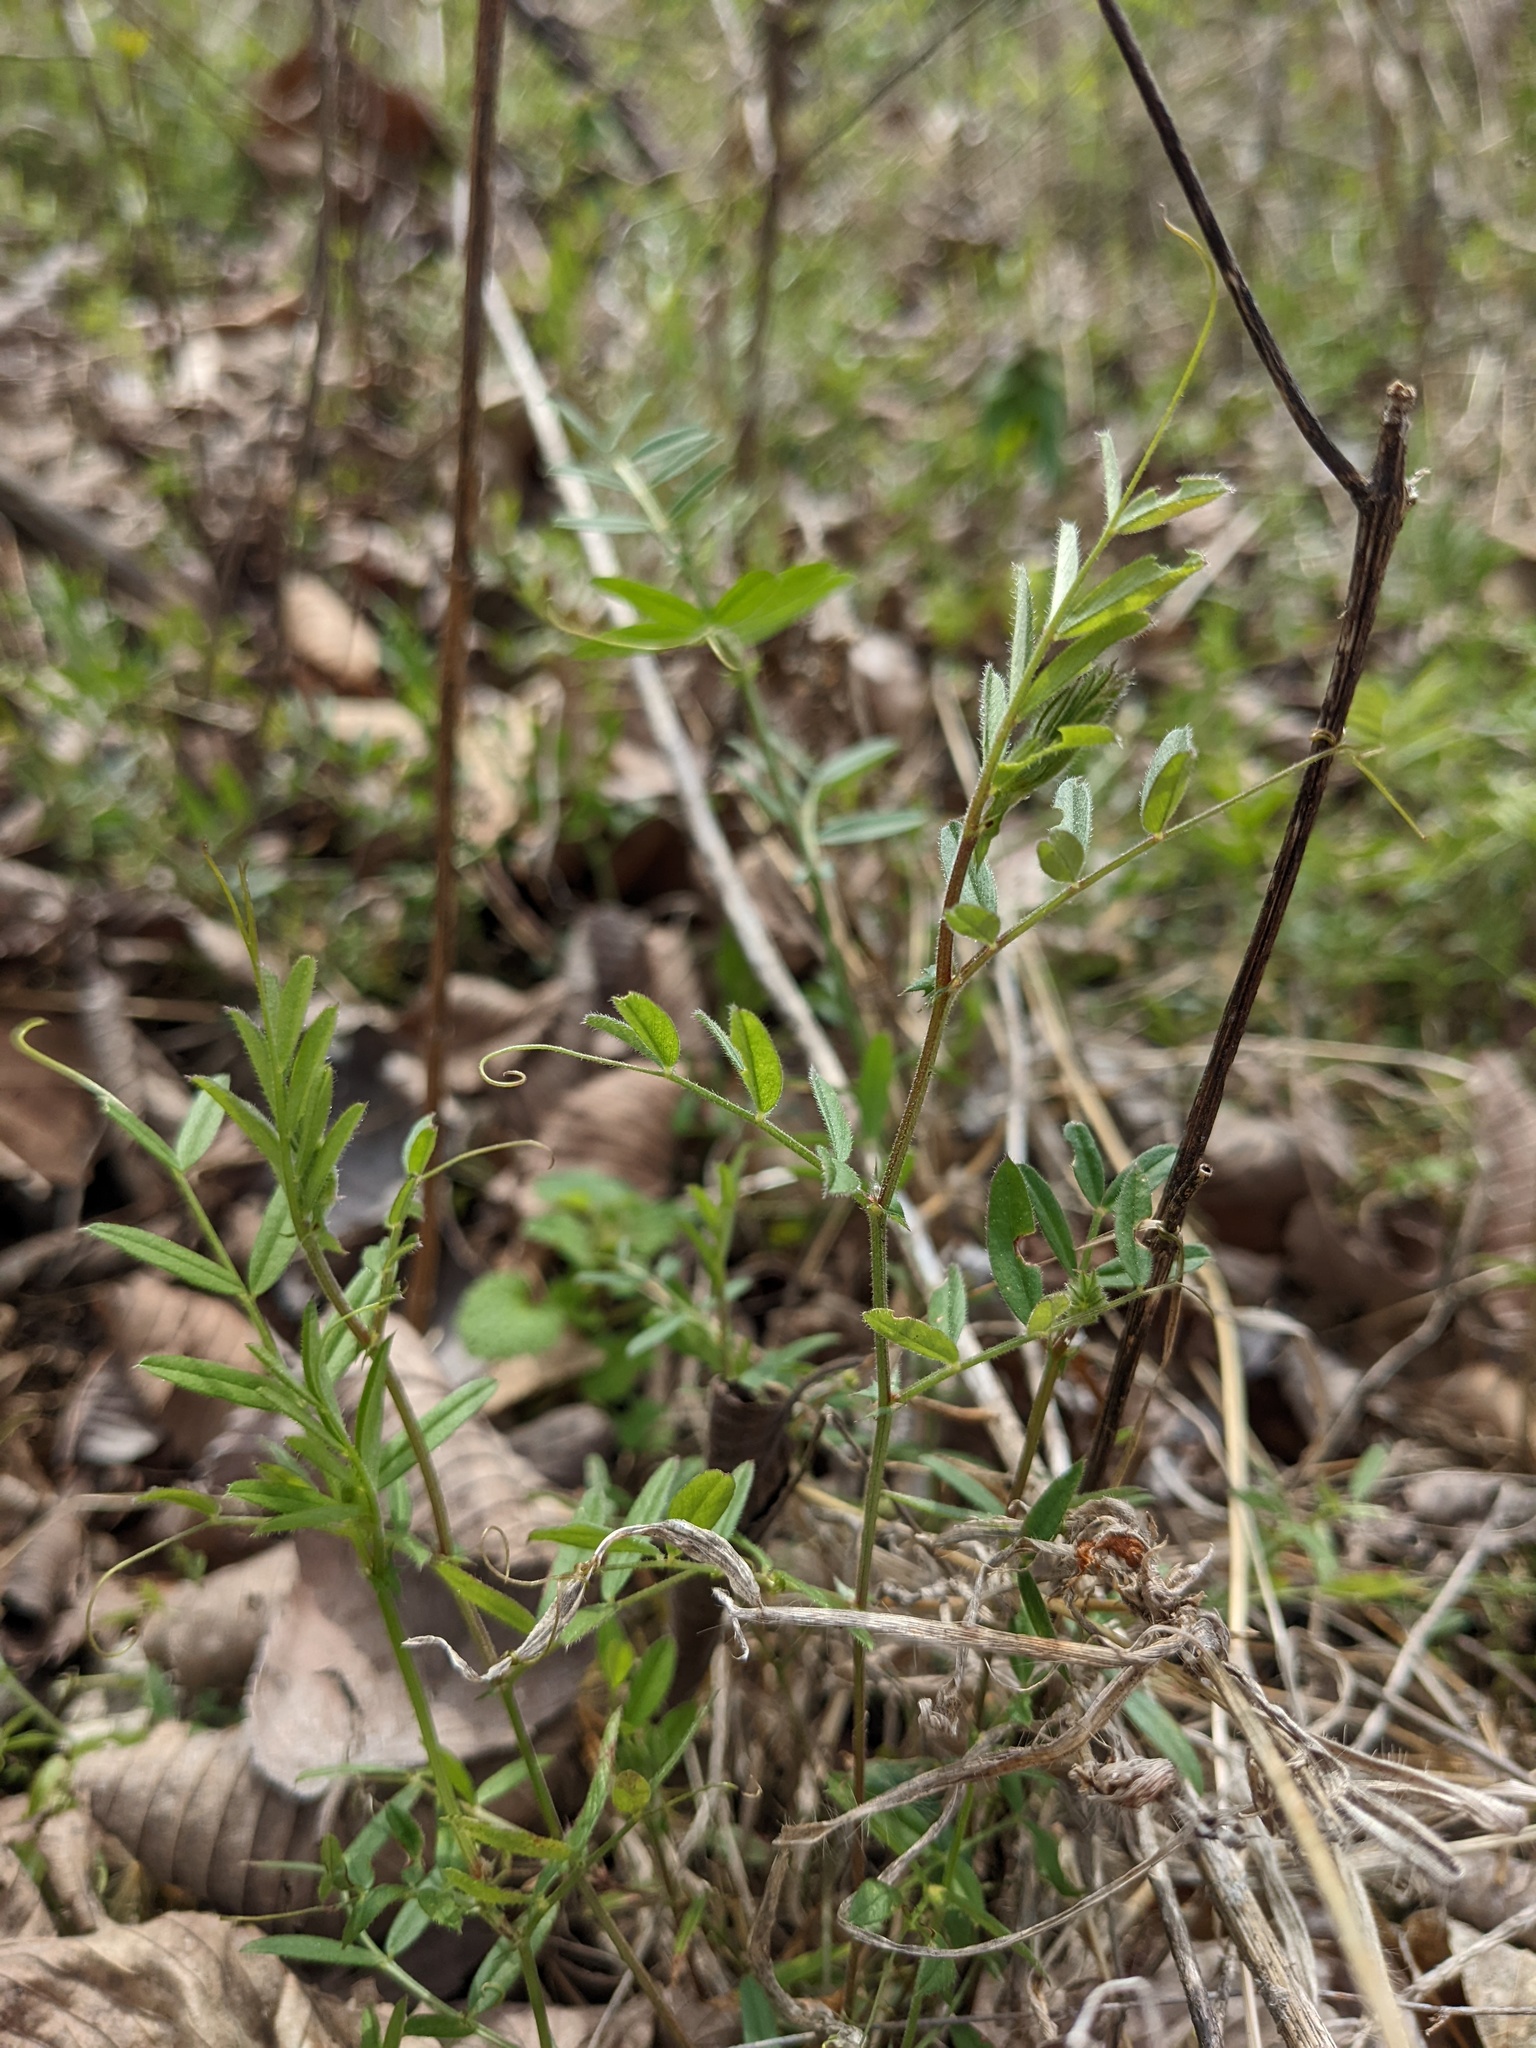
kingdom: Plantae
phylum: Tracheophyta
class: Magnoliopsida
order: Fabales
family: Fabaceae
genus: Vicia
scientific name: Vicia sativa
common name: Garden vetch
